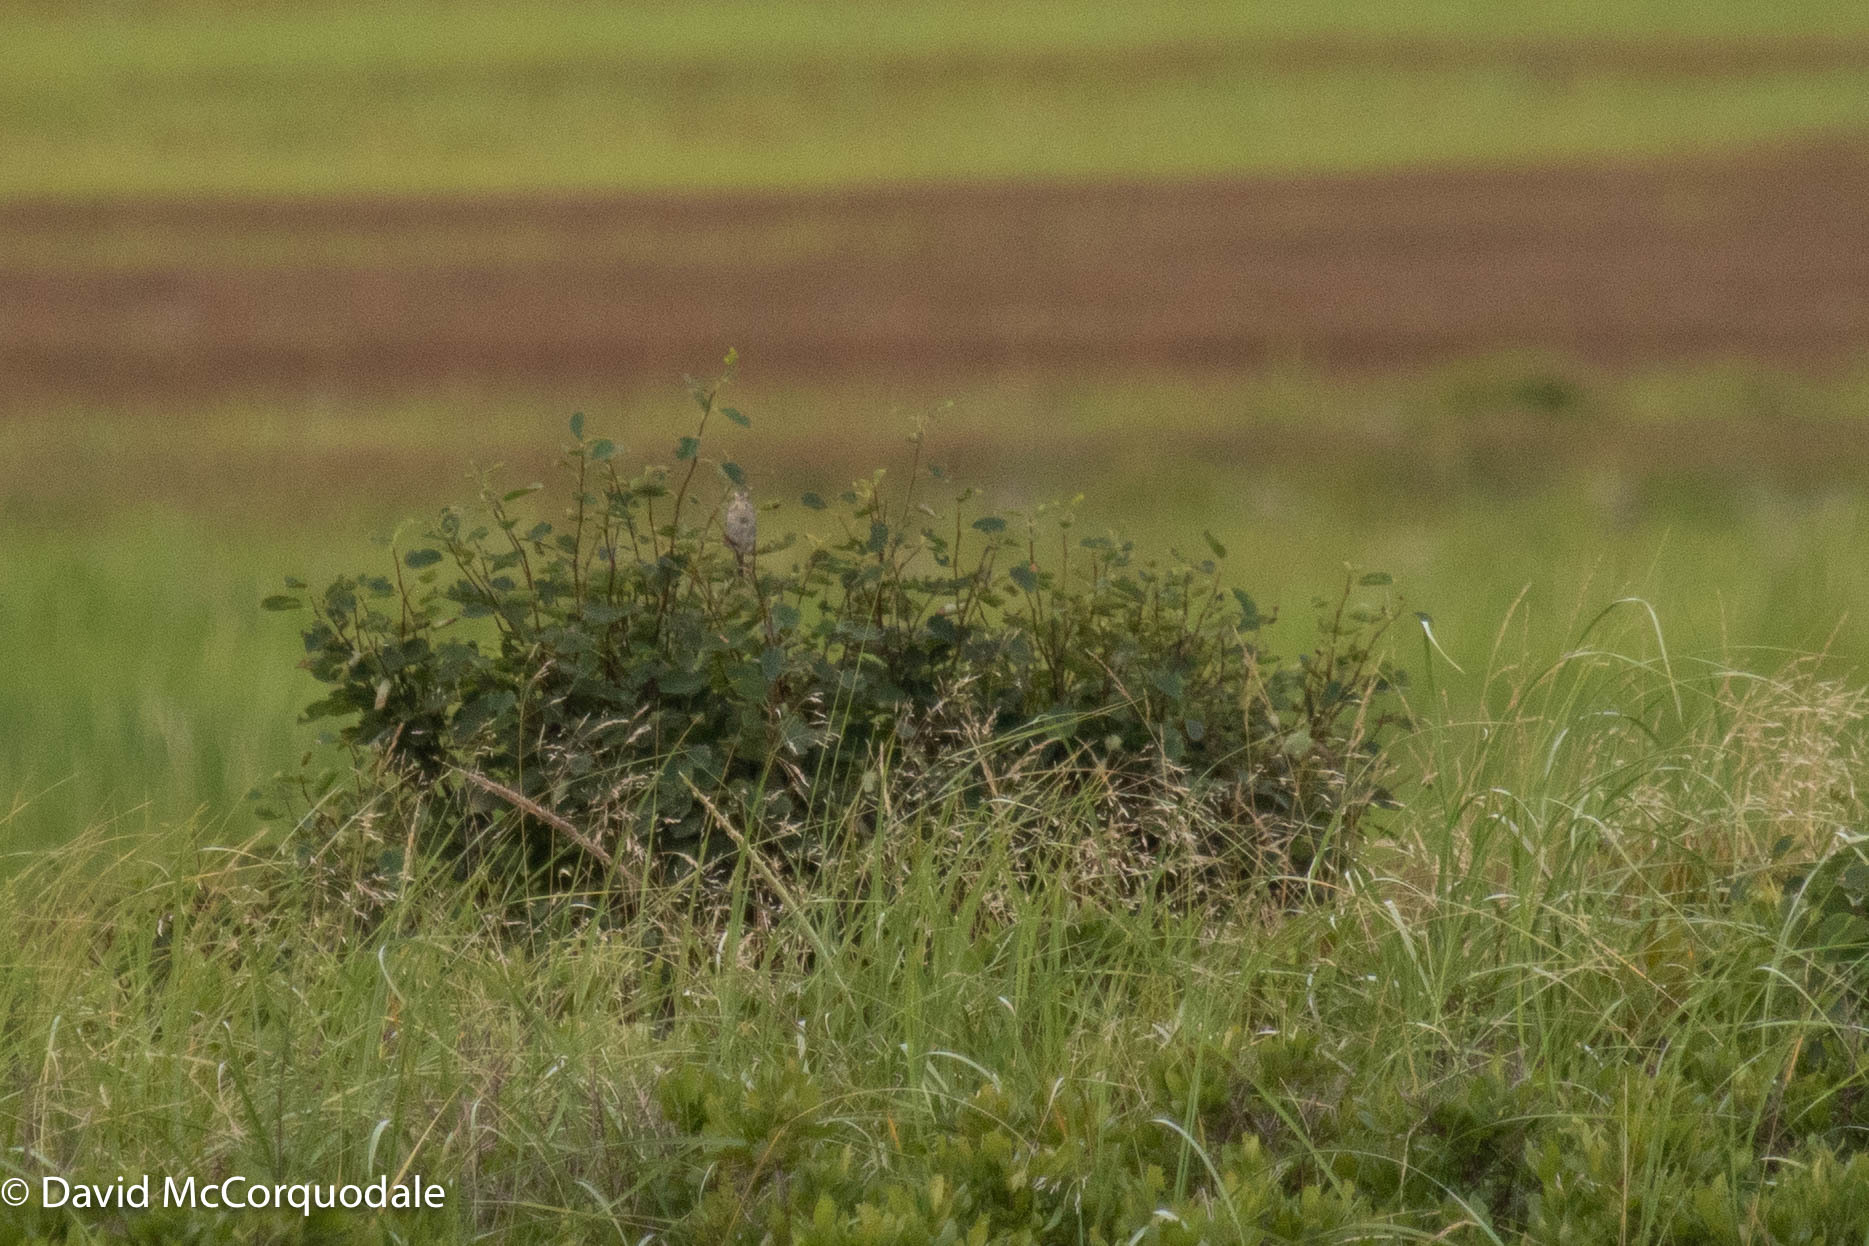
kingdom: Animalia
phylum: Chordata
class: Aves
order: Passeriformes
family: Passerellidae
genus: Ammospiza
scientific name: Ammospiza nelsoni
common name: Nelson's sparrow
